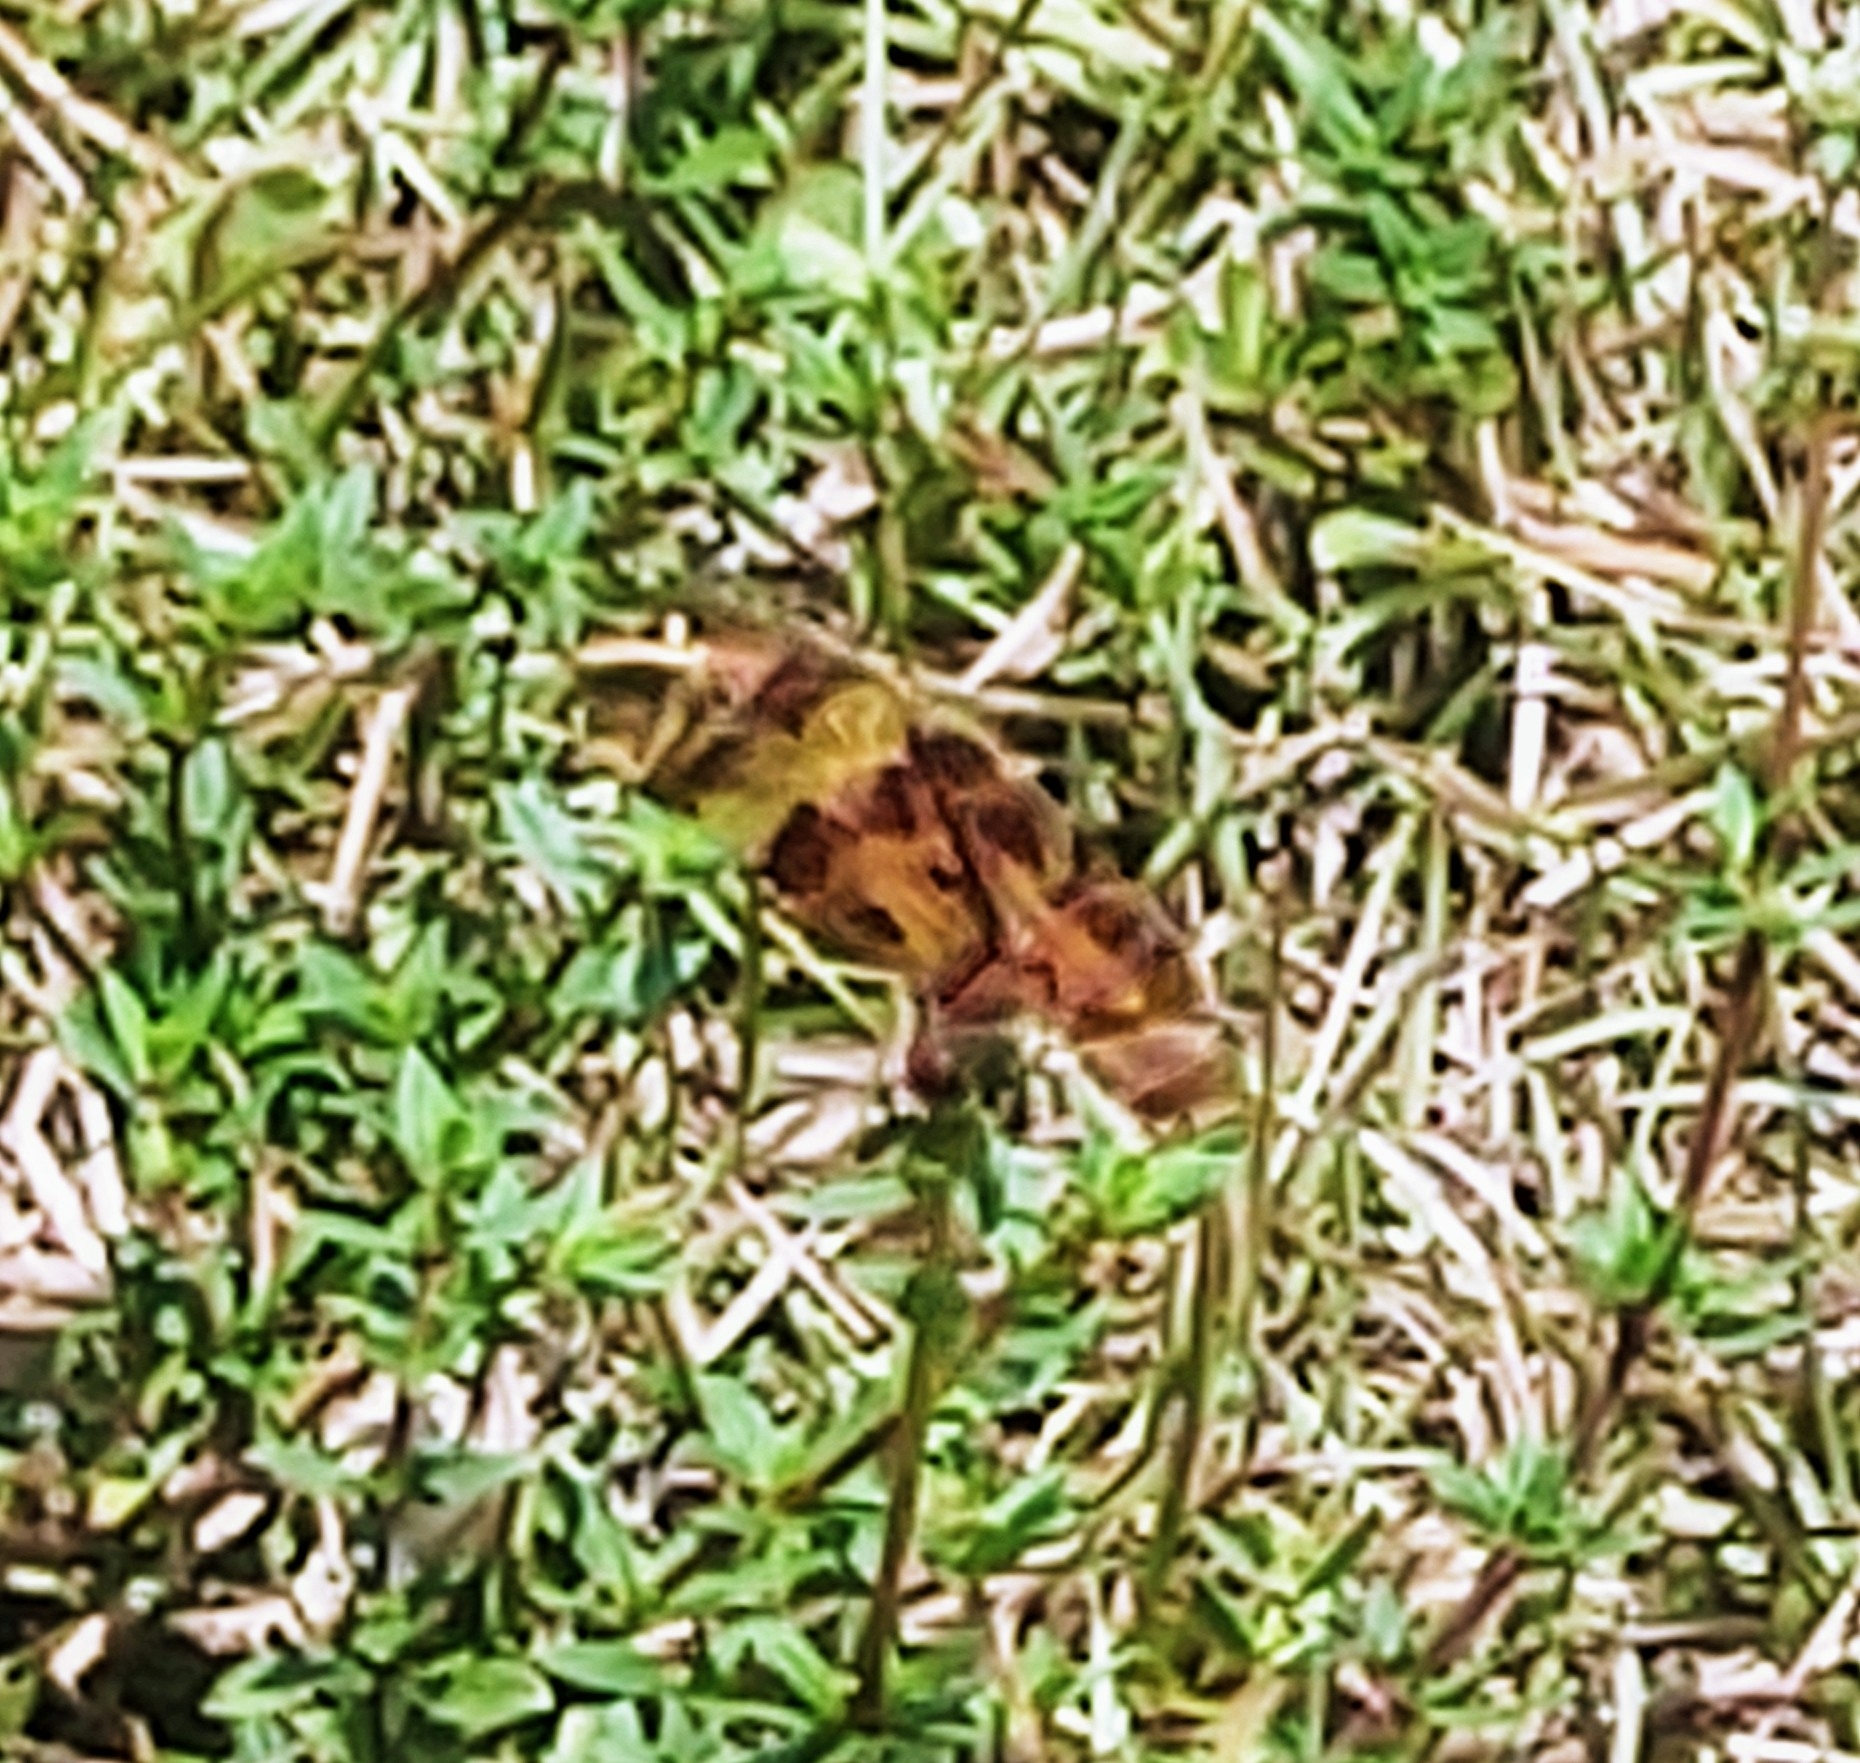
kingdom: Animalia
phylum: Arthropoda
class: Insecta
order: Odonata
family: Libellulidae
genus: Celithemis
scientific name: Celithemis eponina
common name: Halloween pennant
